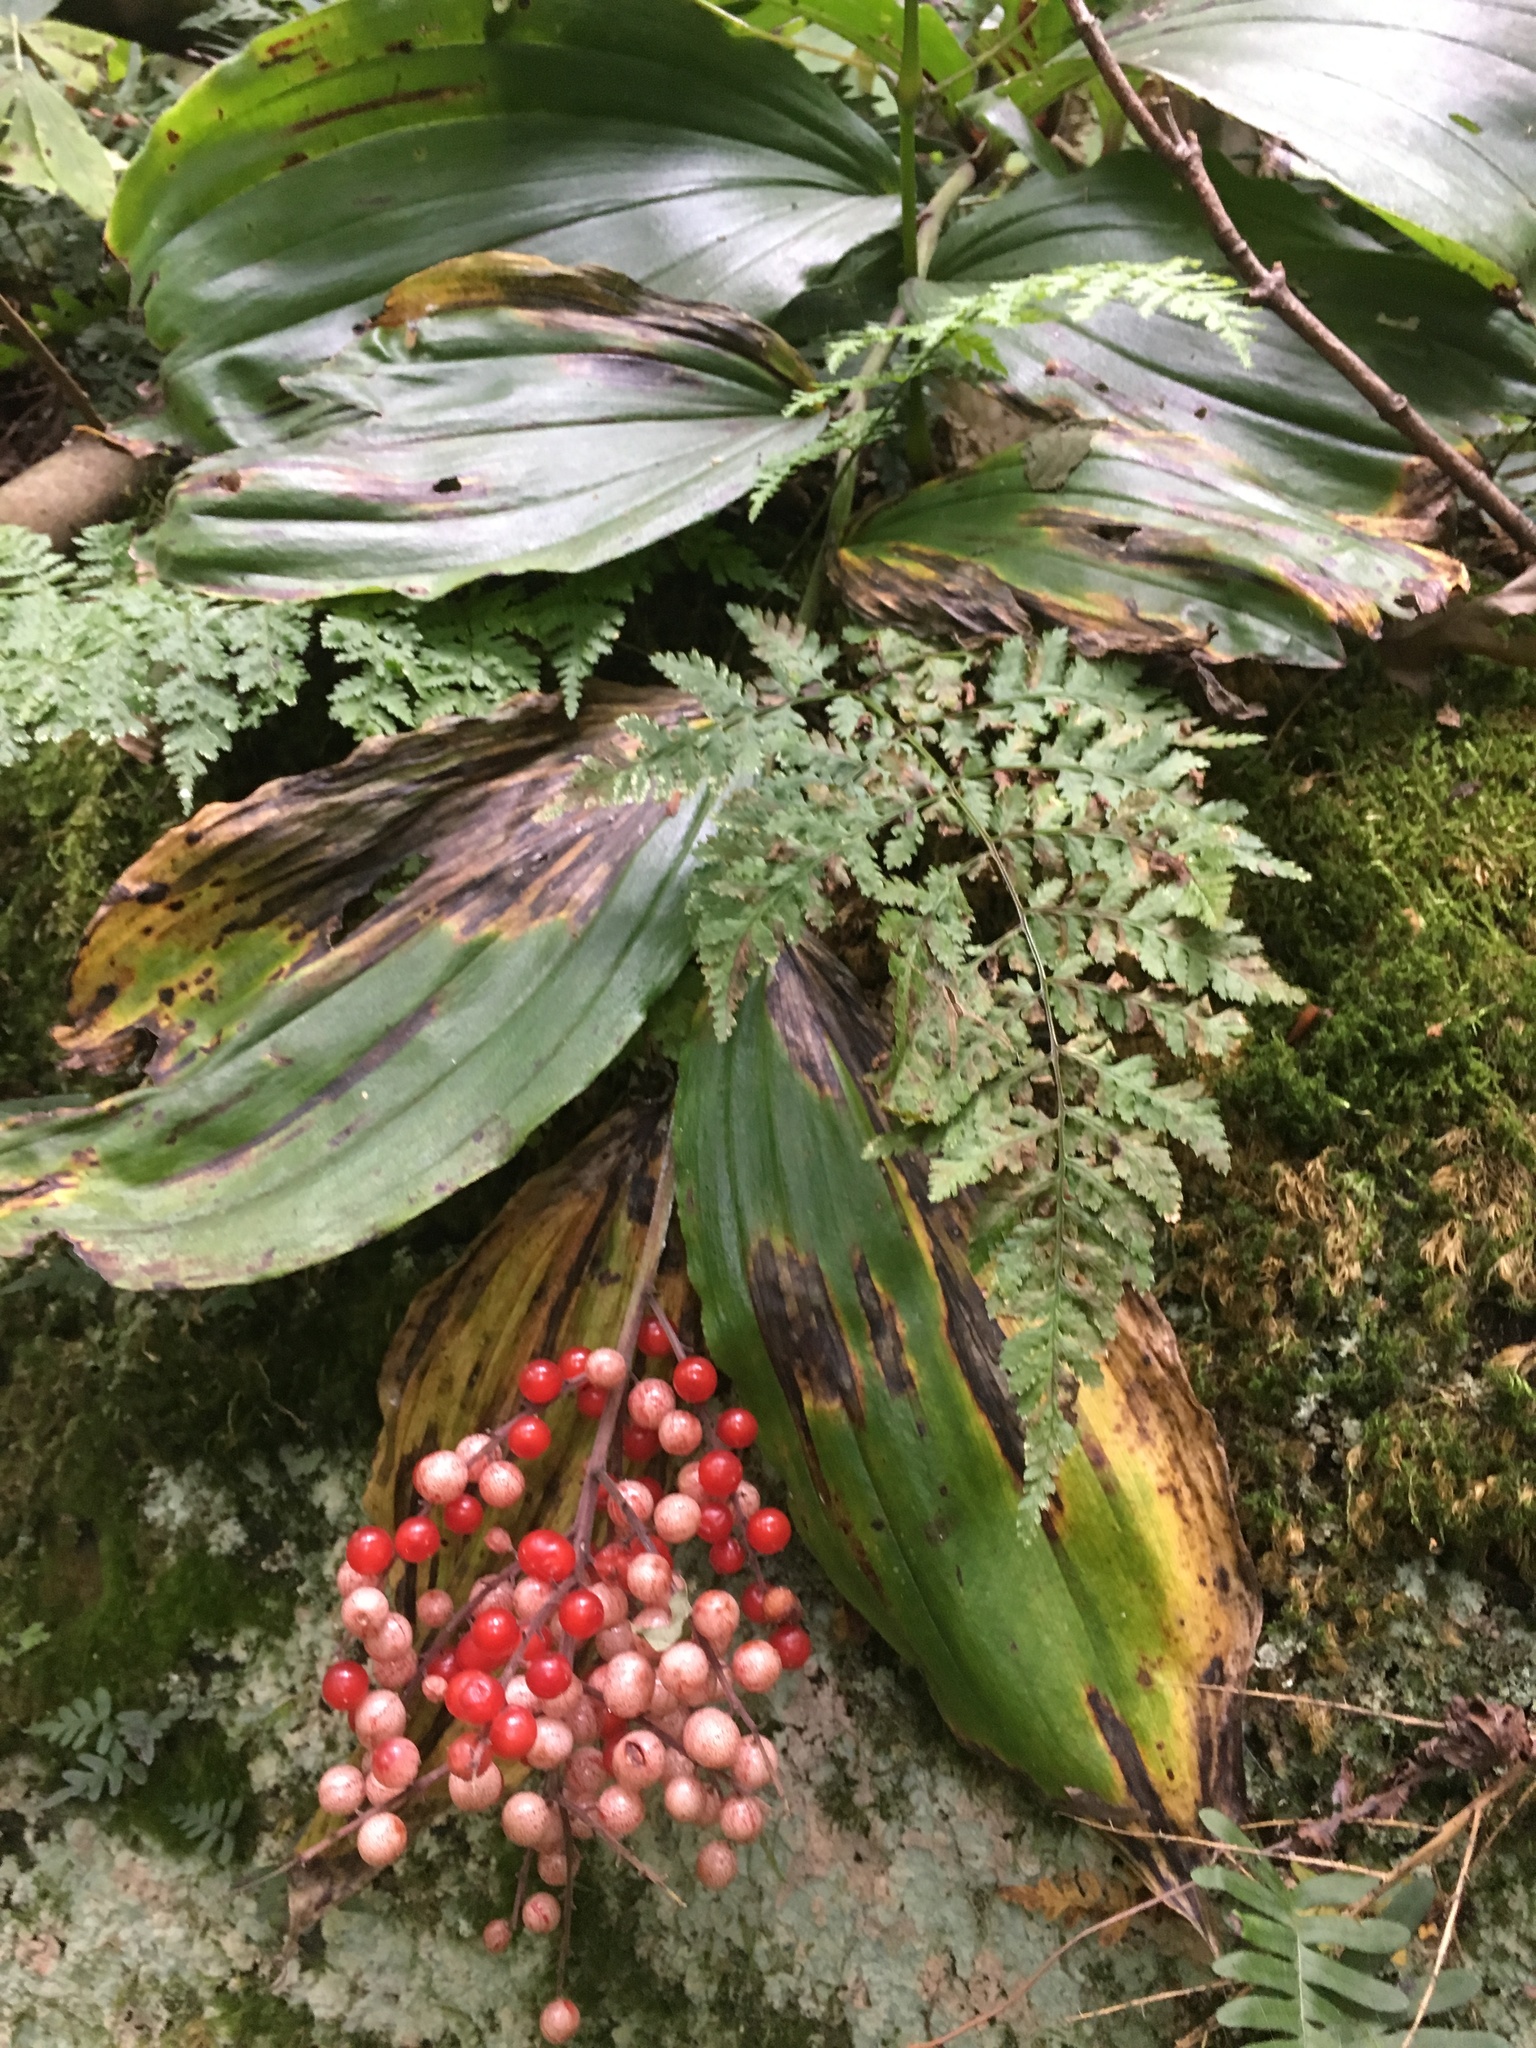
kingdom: Plantae
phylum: Tracheophyta
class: Liliopsida
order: Asparagales
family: Asparagaceae
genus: Maianthemum
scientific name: Maianthemum racemosum
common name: False spikenard
